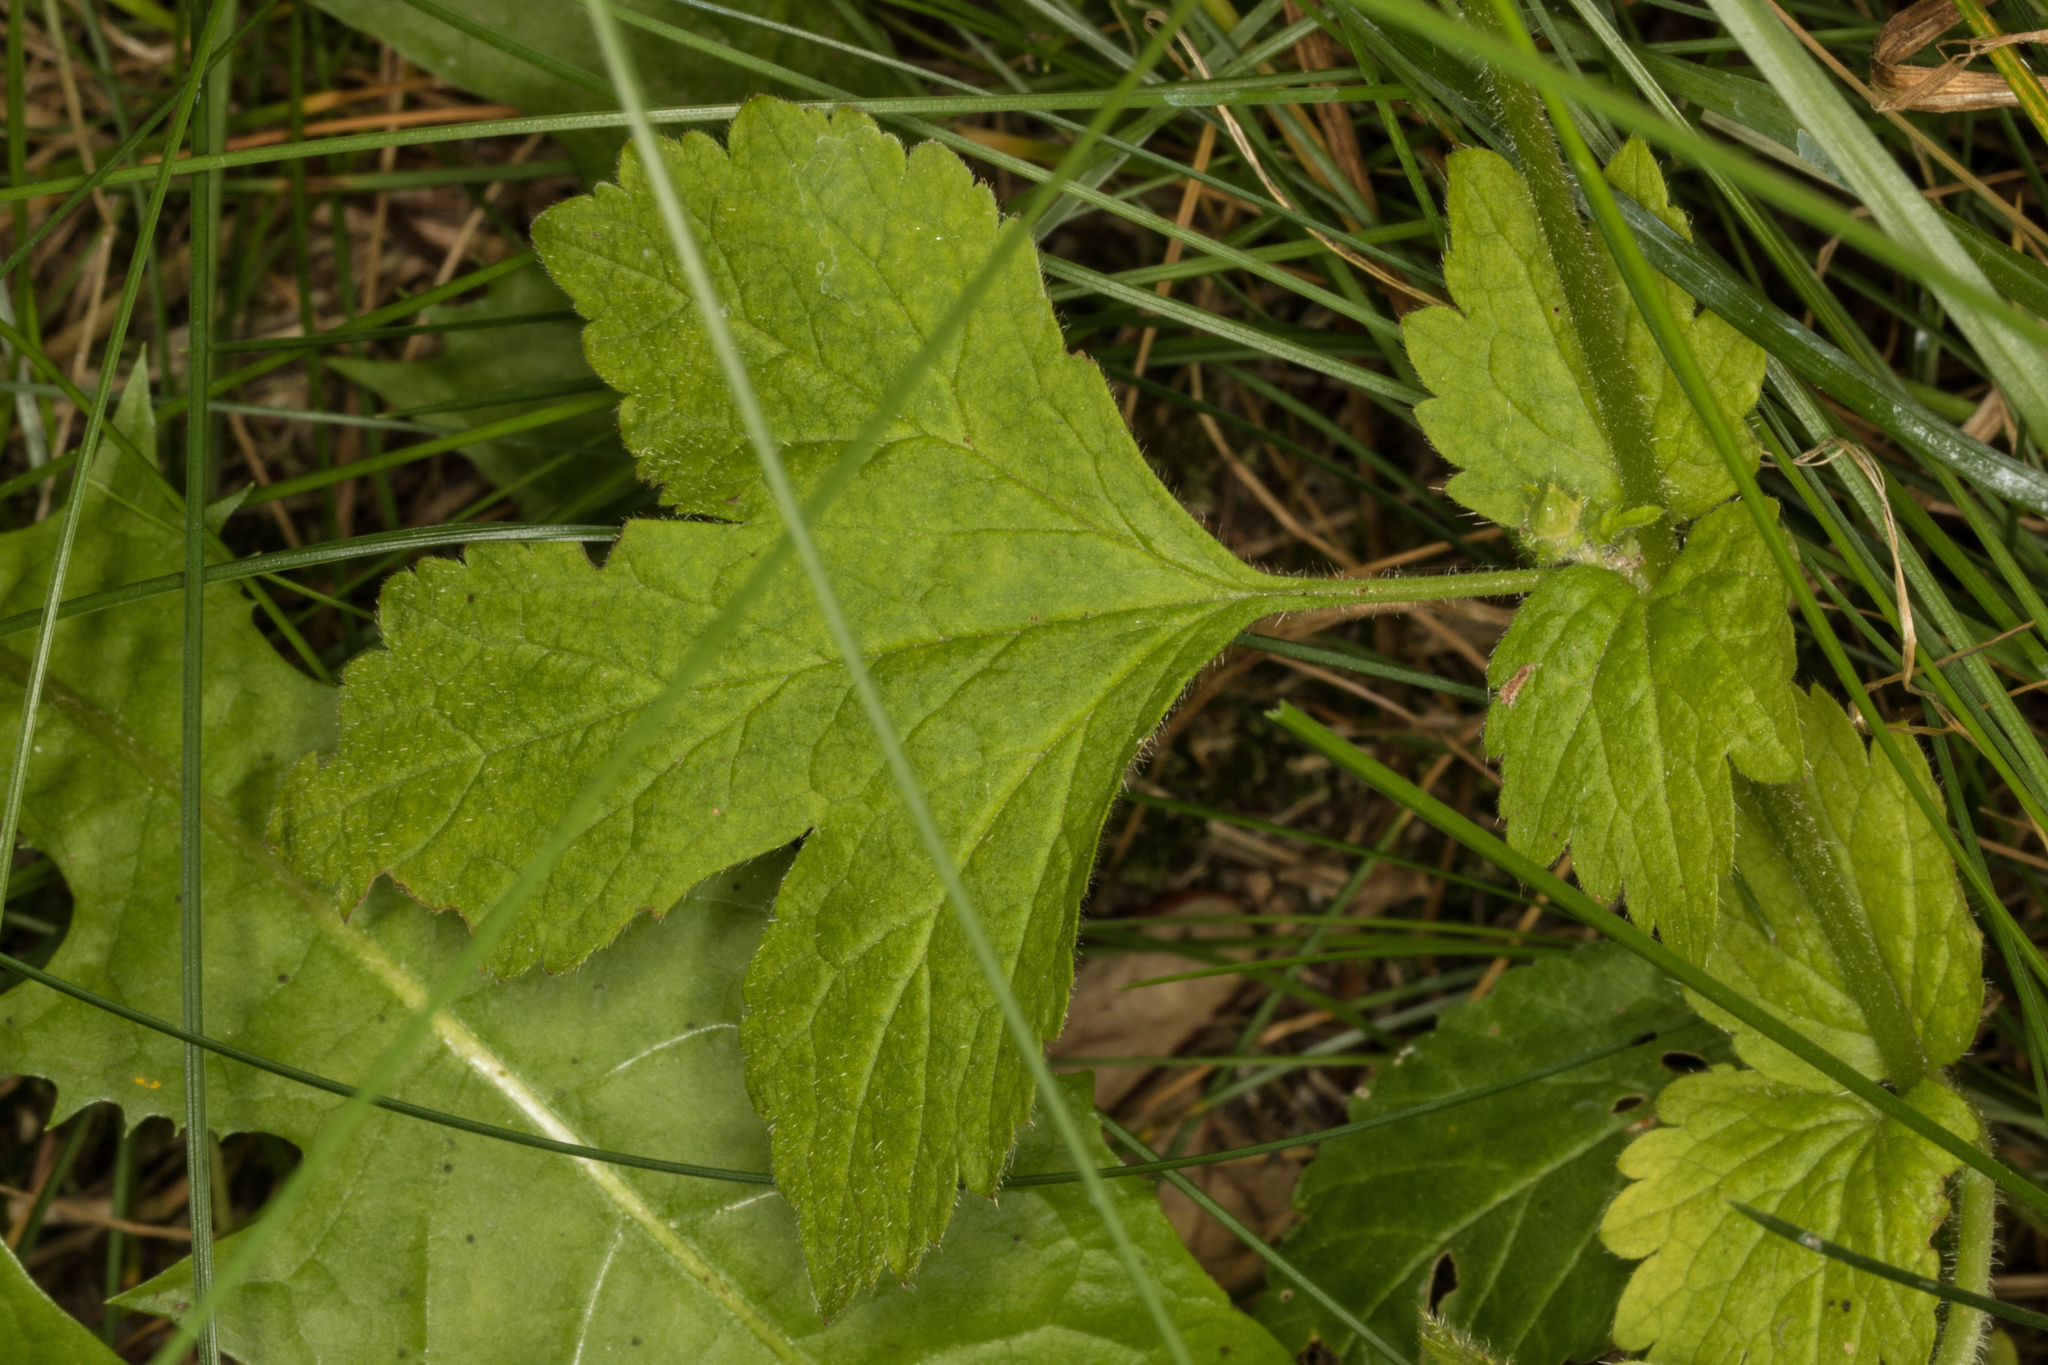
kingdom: Plantae
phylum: Tracheophyta
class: Magnoliopsida
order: Rosales
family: Rosaceae
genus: Geum
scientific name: Geum urbanum
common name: Wood avens
